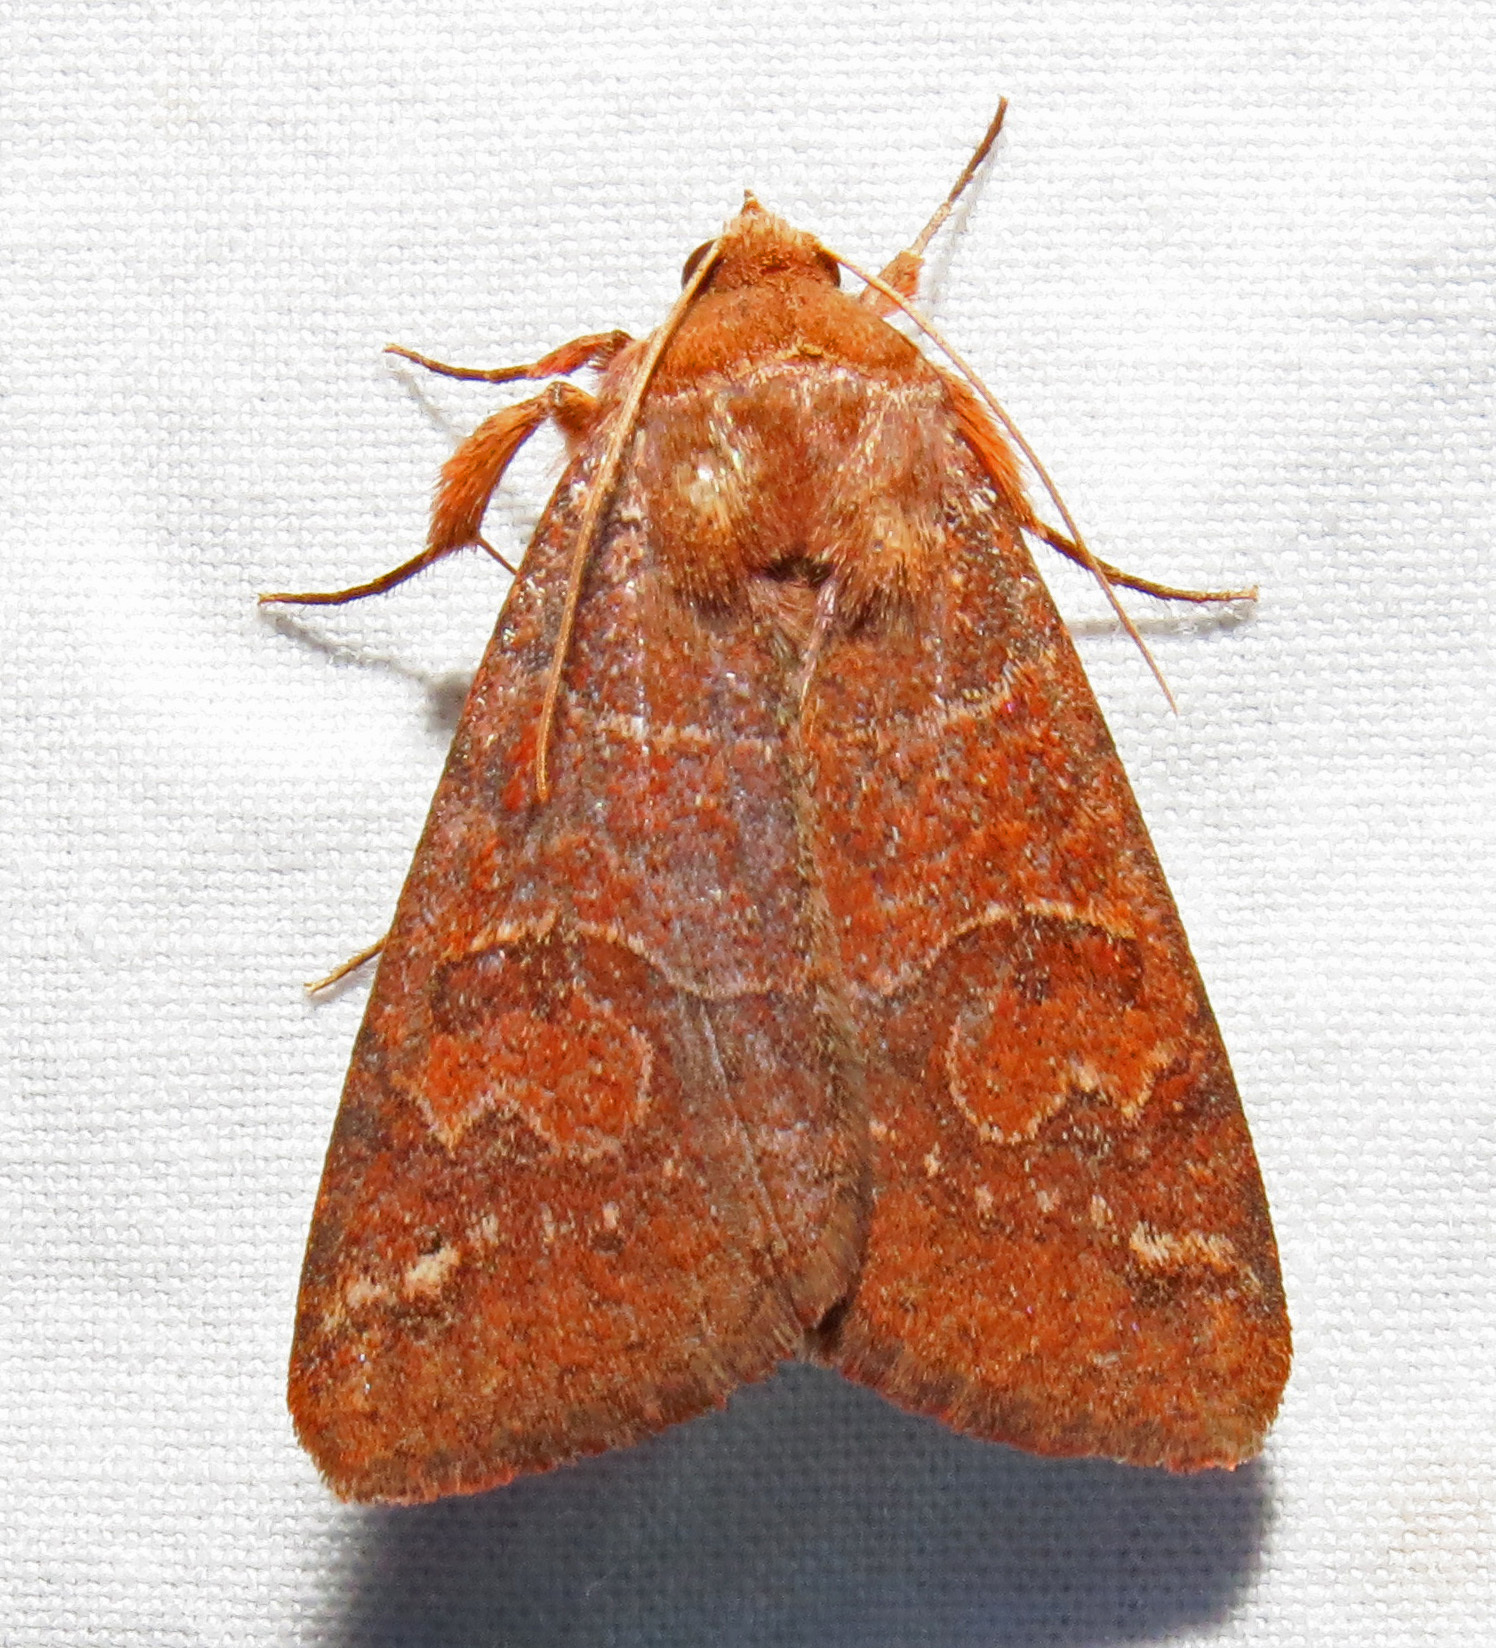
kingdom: Animalia
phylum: Arthropoda
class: Insecta
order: Lepidoptera
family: Erebidae
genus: Cissusa
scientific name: Cissusa spadix
